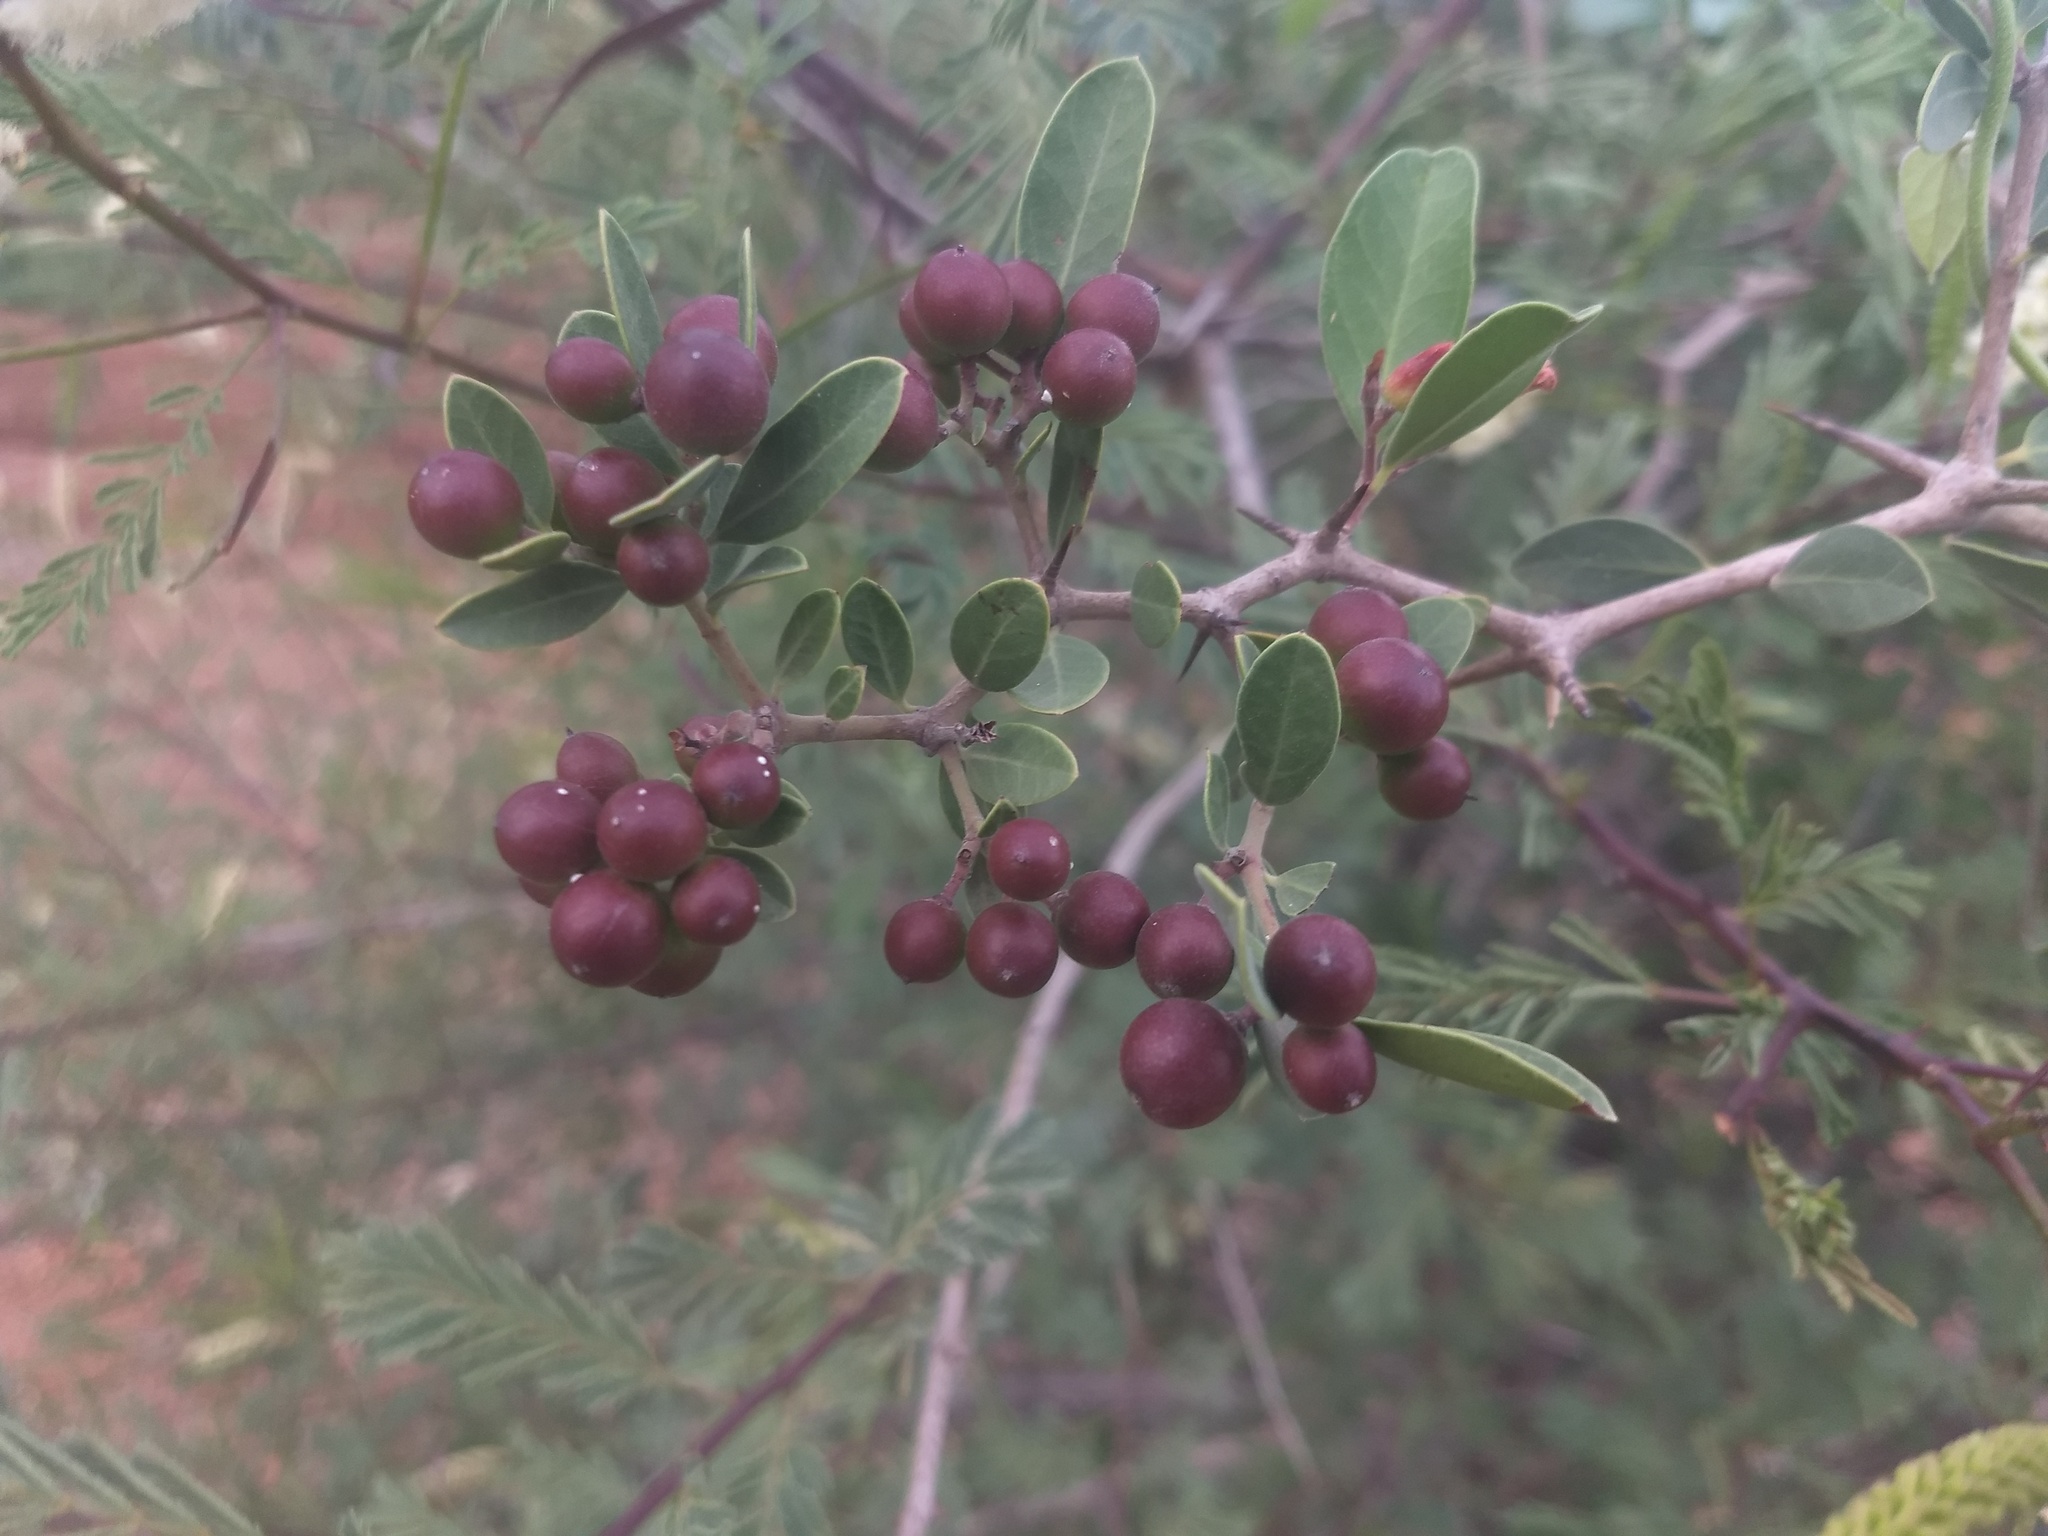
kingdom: Plantae
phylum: Tracheophyta
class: Magnoliopsida
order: Gentianales
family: Apocynaceae
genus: Carissa
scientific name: Carissa carandas
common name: Karanda
